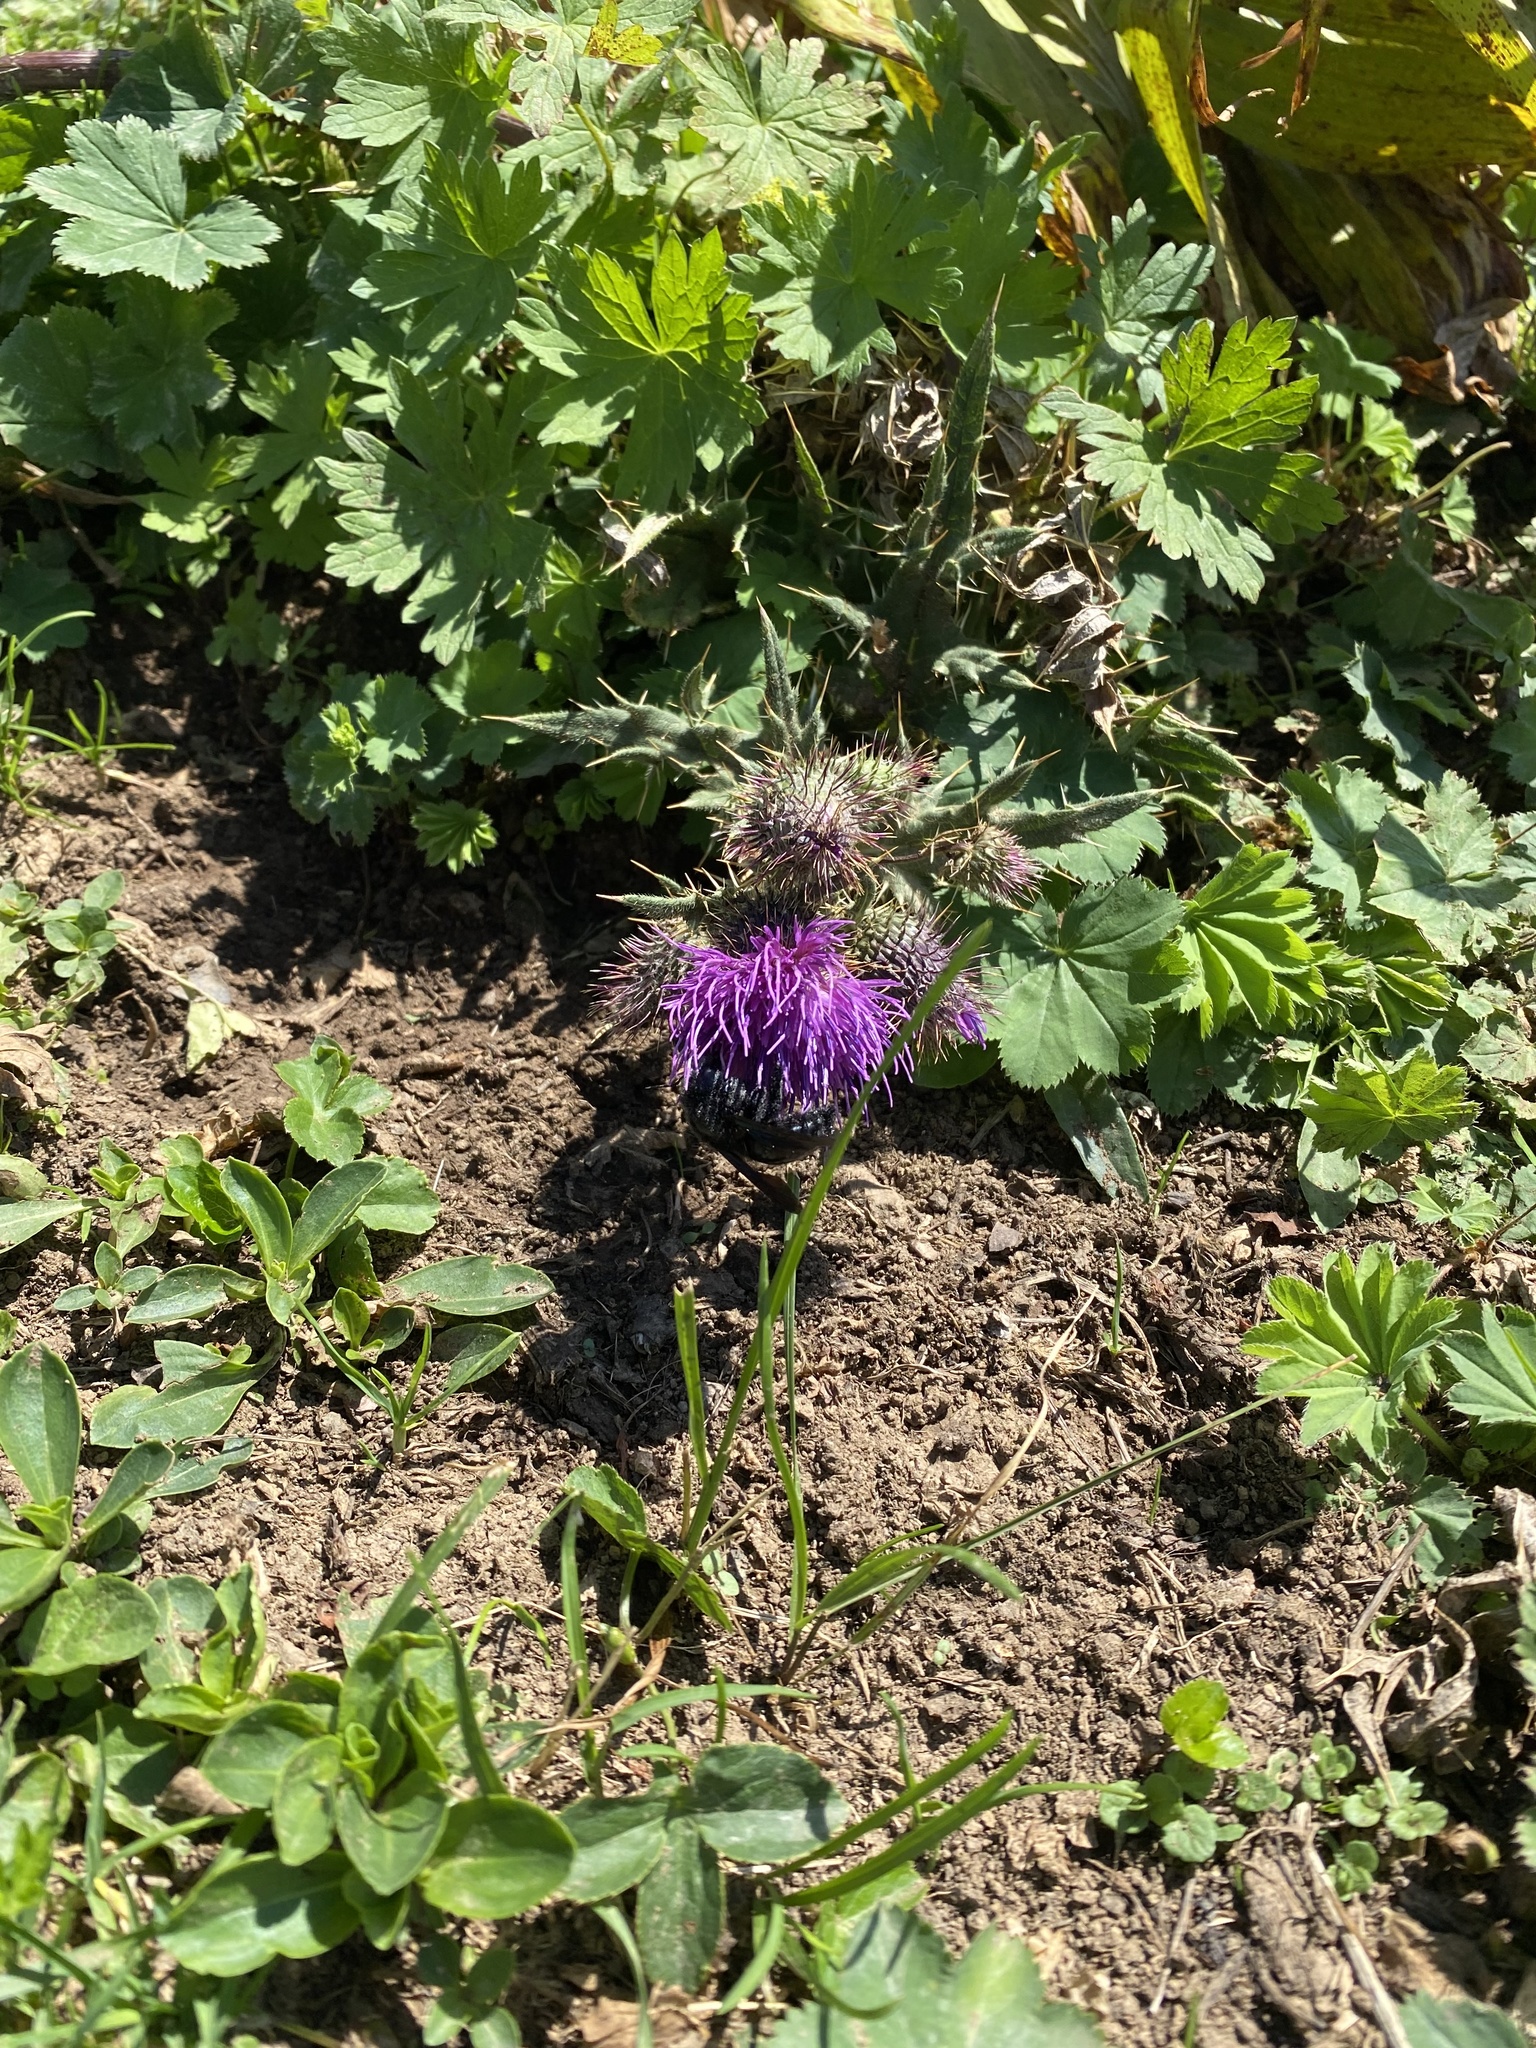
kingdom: Plantae
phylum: Tracheophyta
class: Magnoliopsida
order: Asterales
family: Asteraceae
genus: Lophiolepis
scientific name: Lophiolepis gagnidzei
